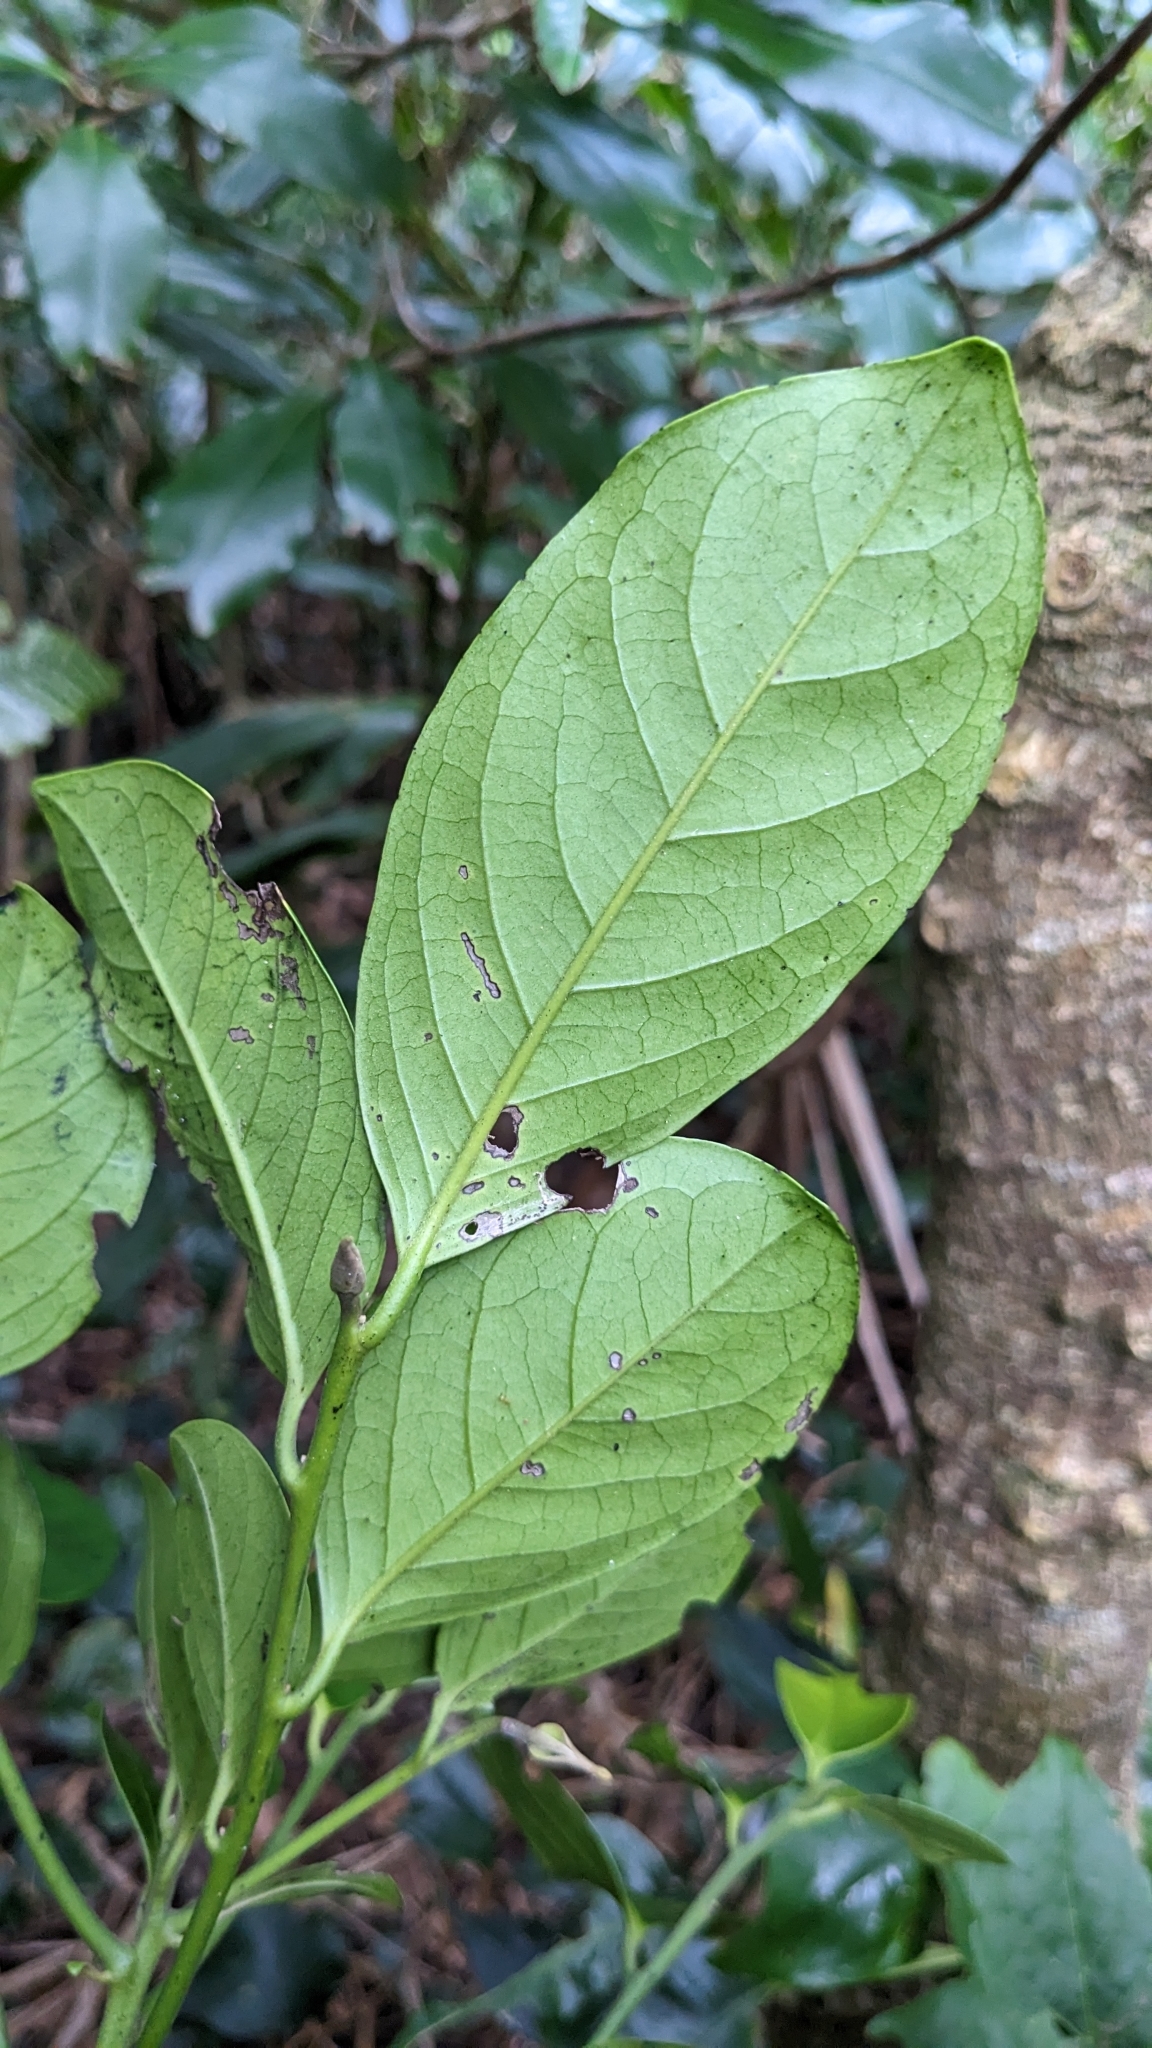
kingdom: Plantae
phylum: Tracheophyta
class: Magnoliopsida
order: Ericales
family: Ebenaceae
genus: Diospyros
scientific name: Diospyros maritima
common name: Malaysian persimmon
